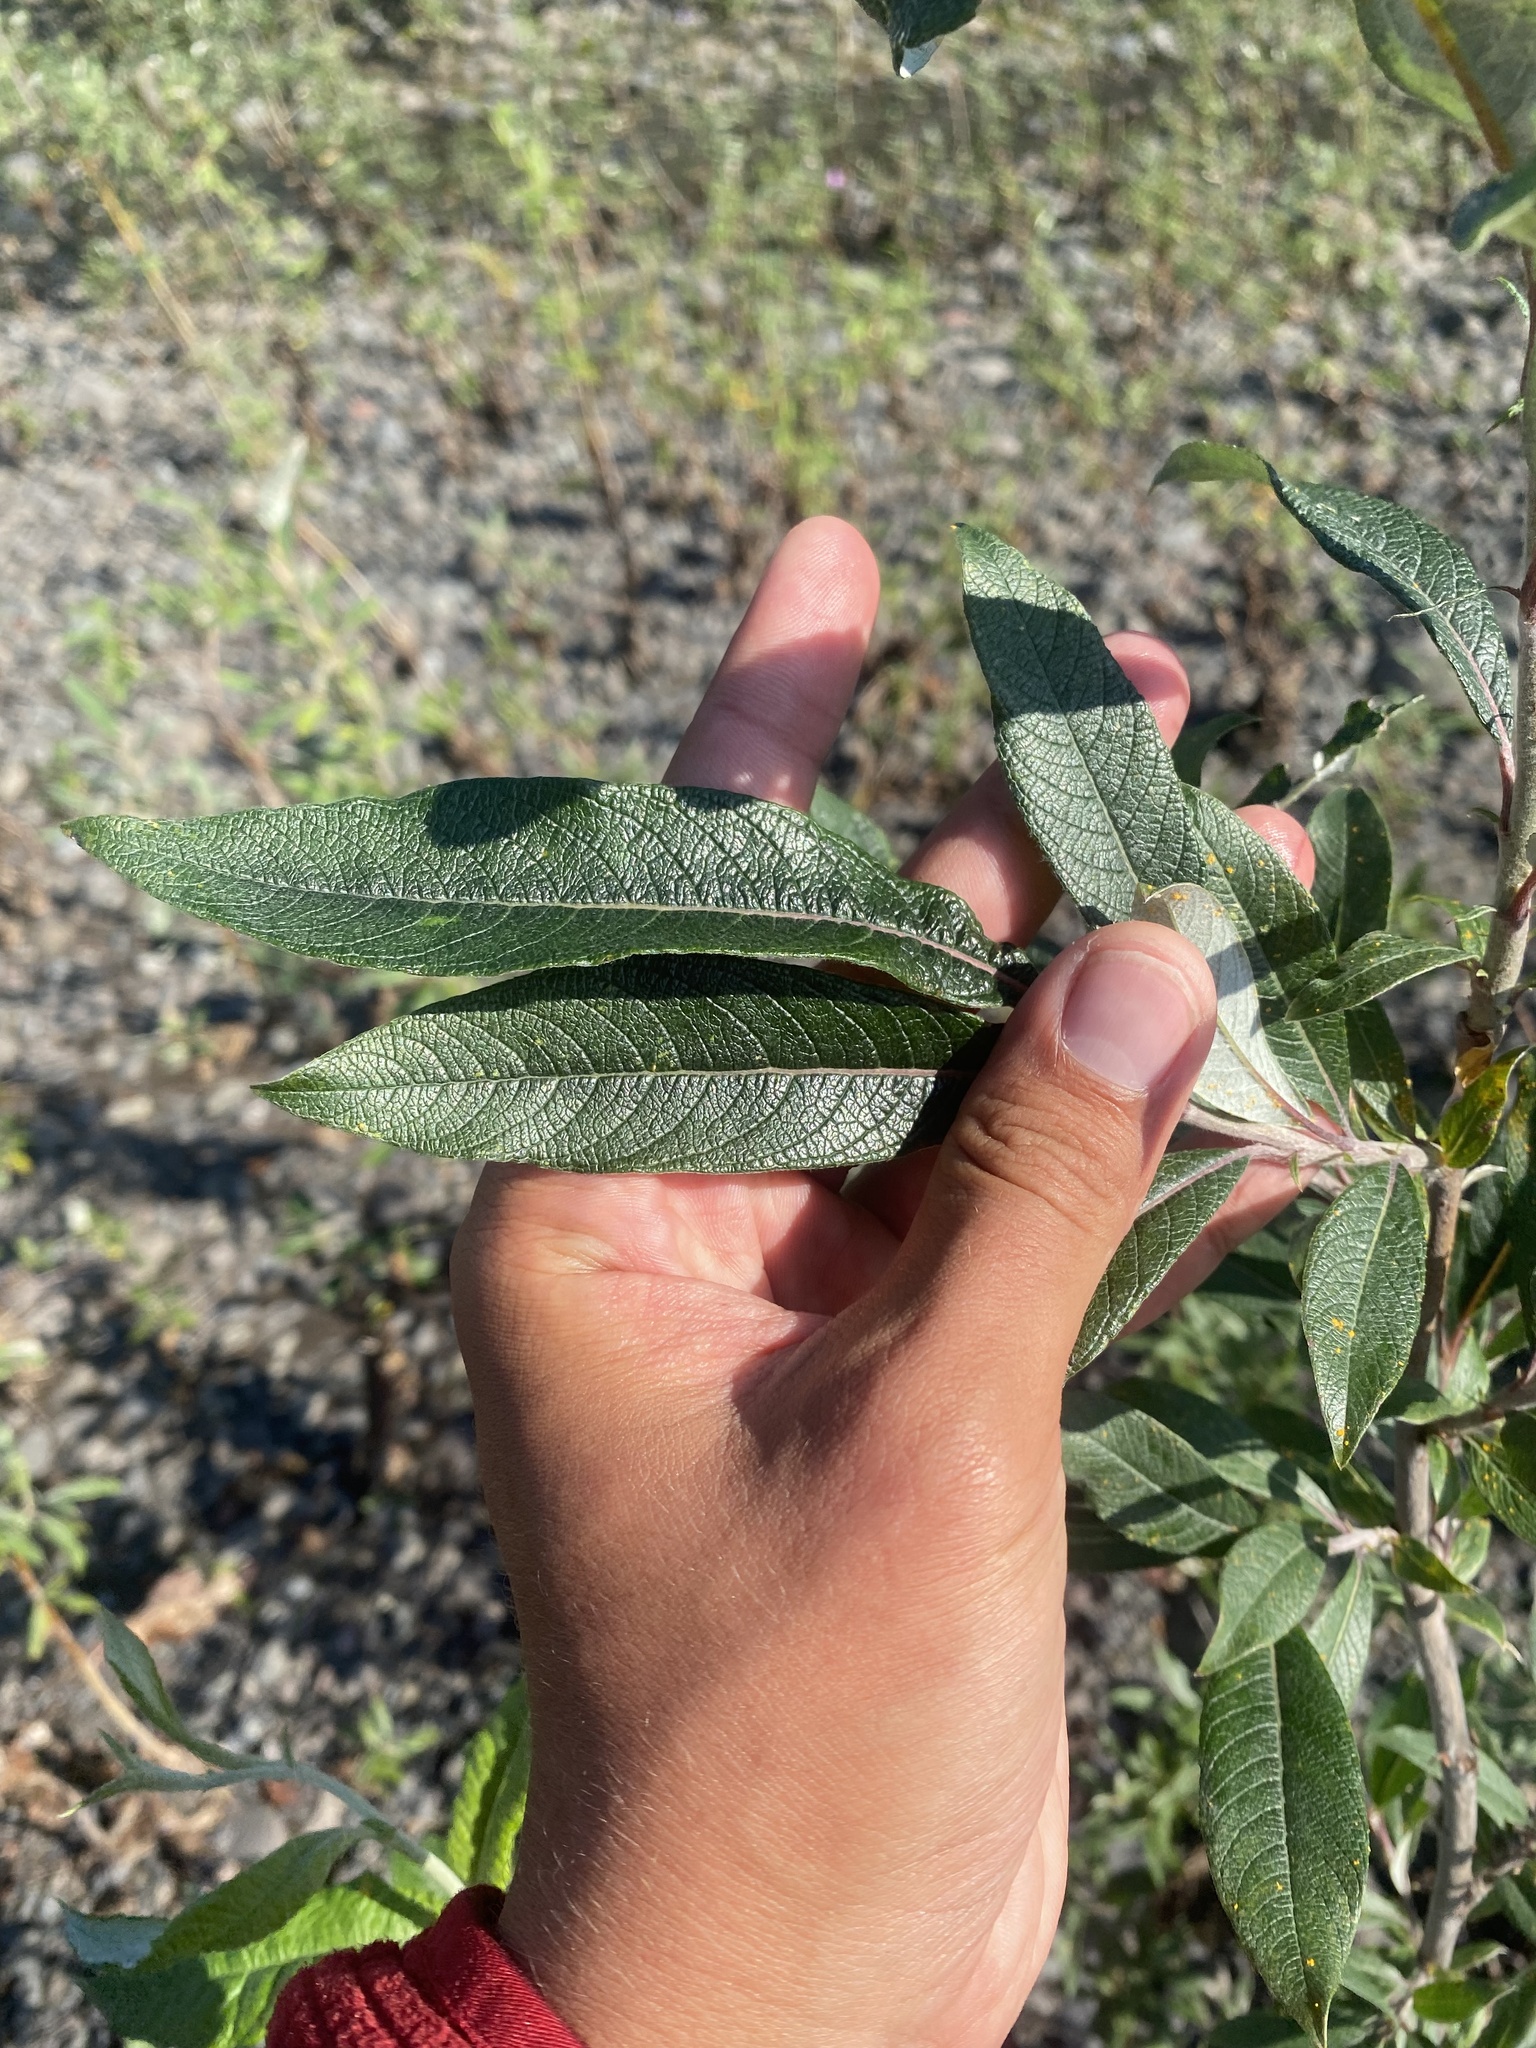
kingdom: Plantae
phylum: Tracheophyta
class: Magnoliopsida
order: Malpighiales
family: Salicaceae
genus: Salix
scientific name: Salix alaxensis
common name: Feltleaf willow
